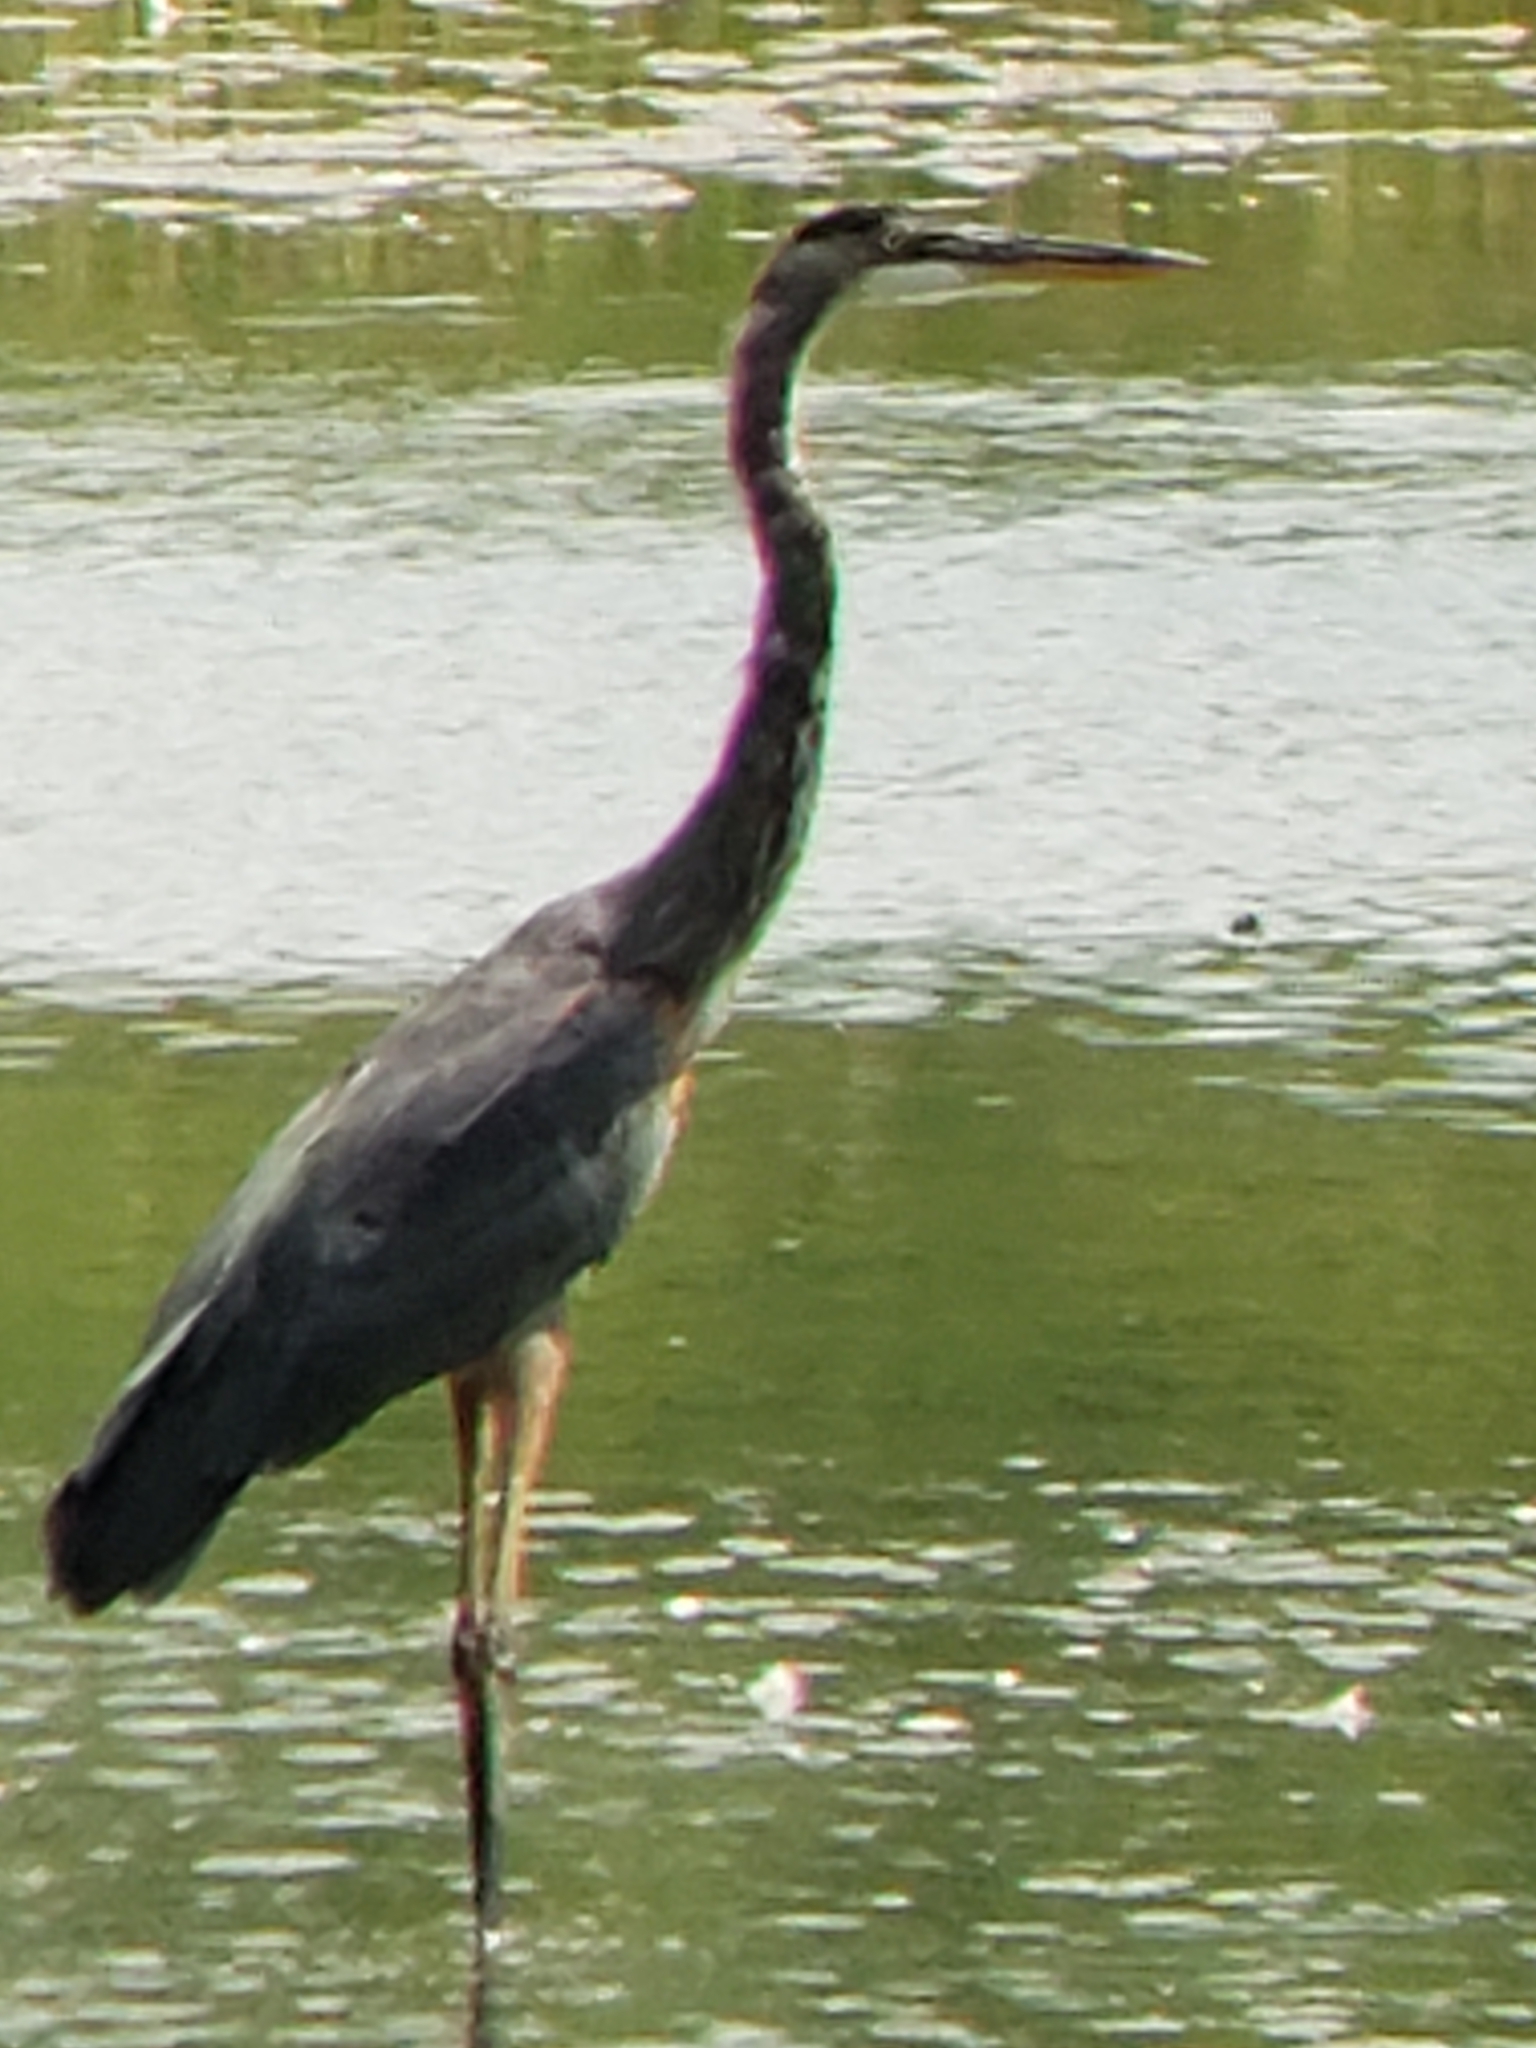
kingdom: Animalia
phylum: Chordata
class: Aves
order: Pelecaniformes
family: Ardeidae
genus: Ardea
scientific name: Ardea herodias
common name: Great blue heron
